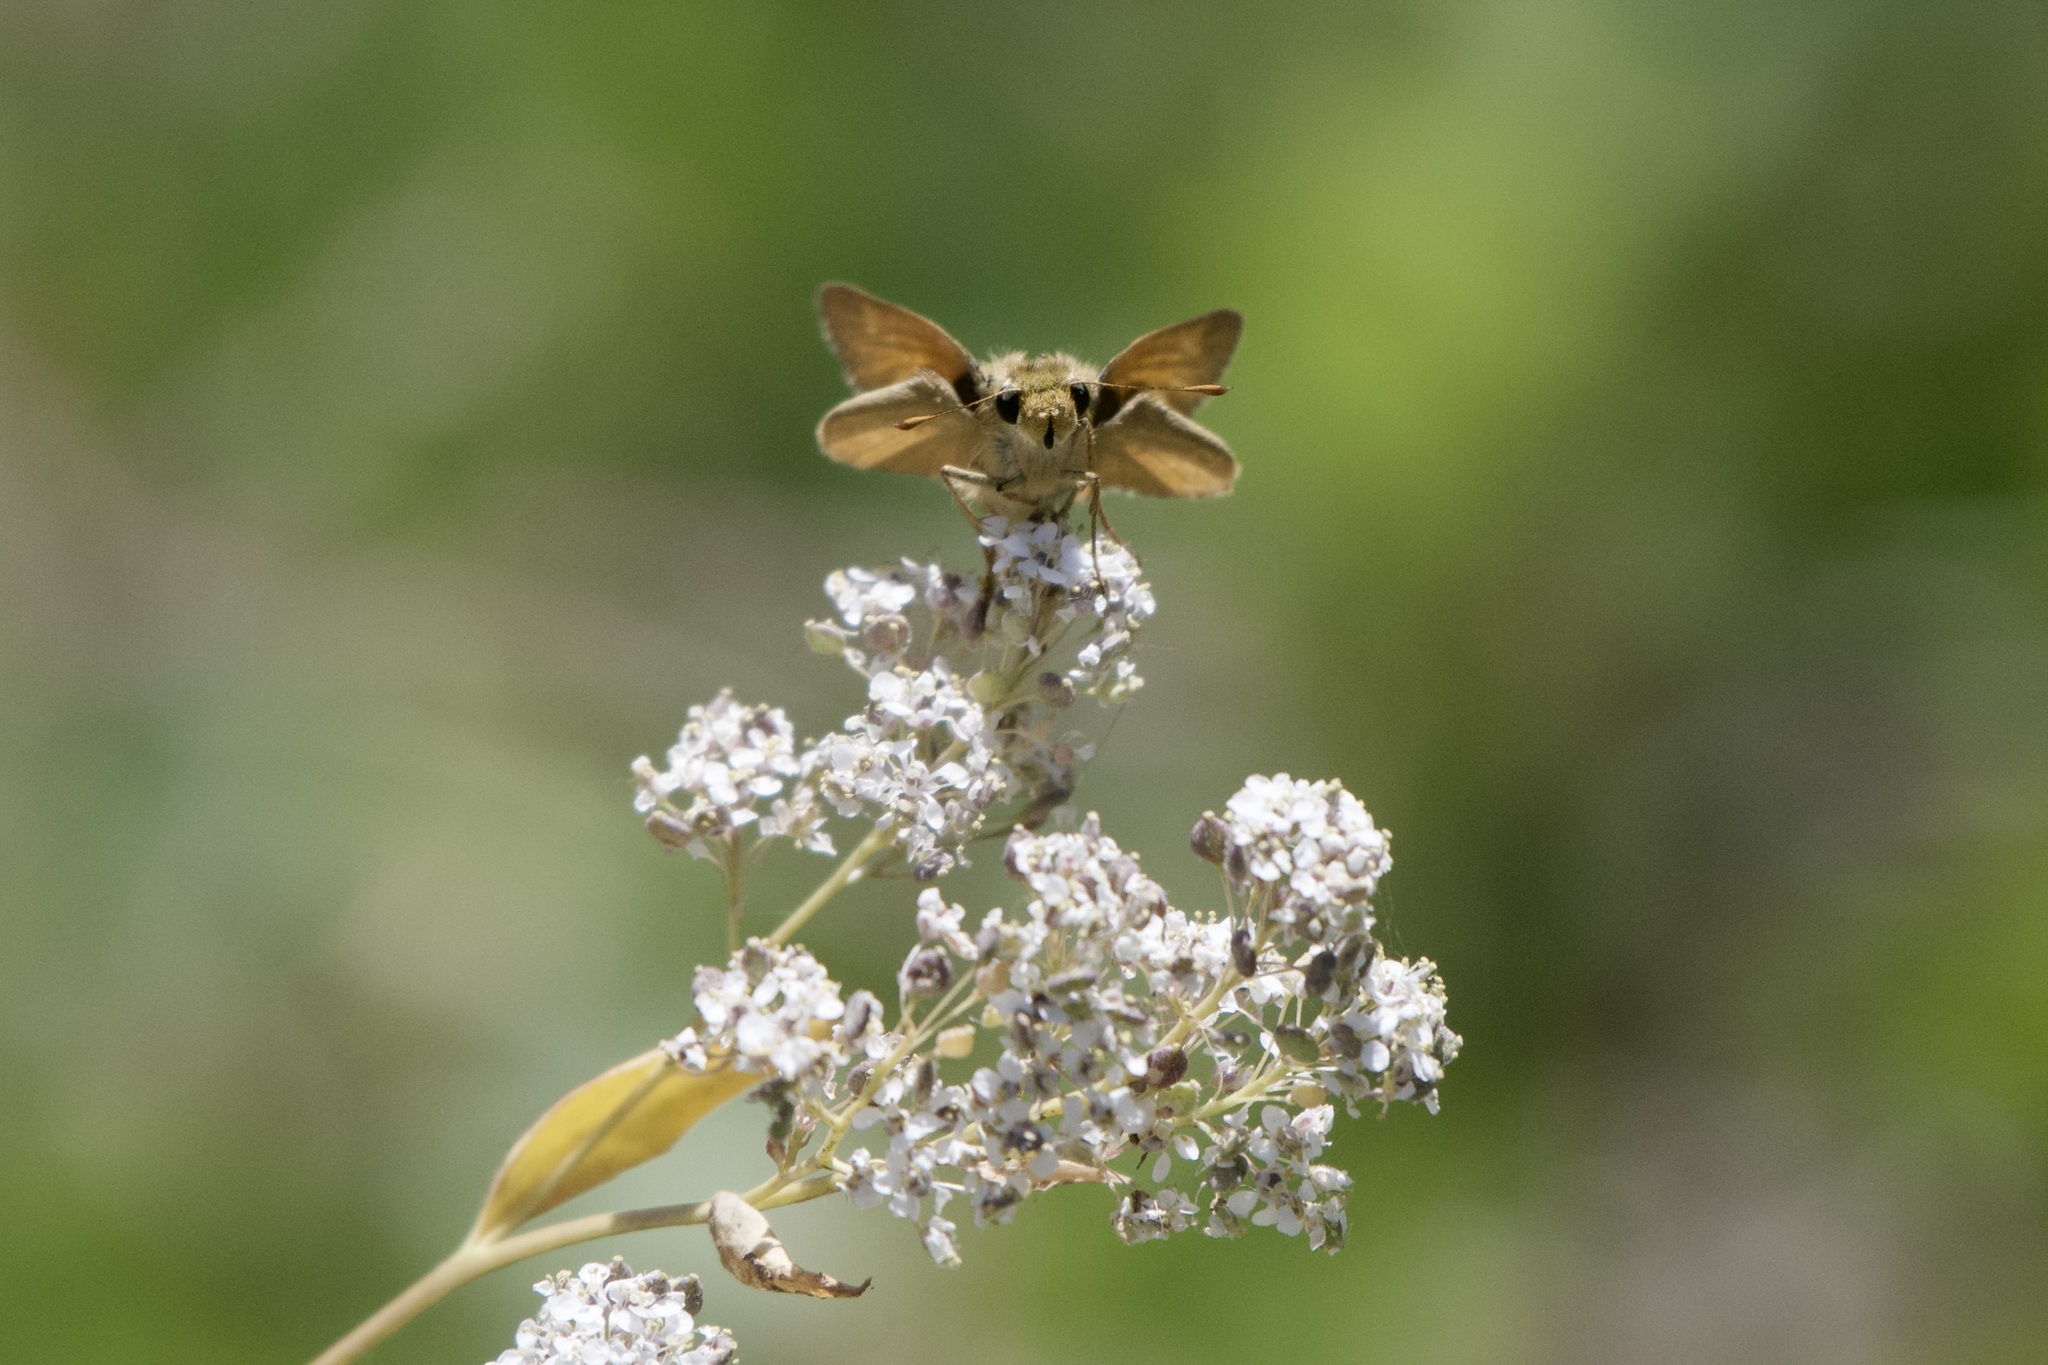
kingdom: Animalia
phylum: Arthropoda
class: Insecta
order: Lepidoptera
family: Hesperiidae
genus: Ochlodes
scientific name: Ochlodes sylvanoides
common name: Woodland skipper
